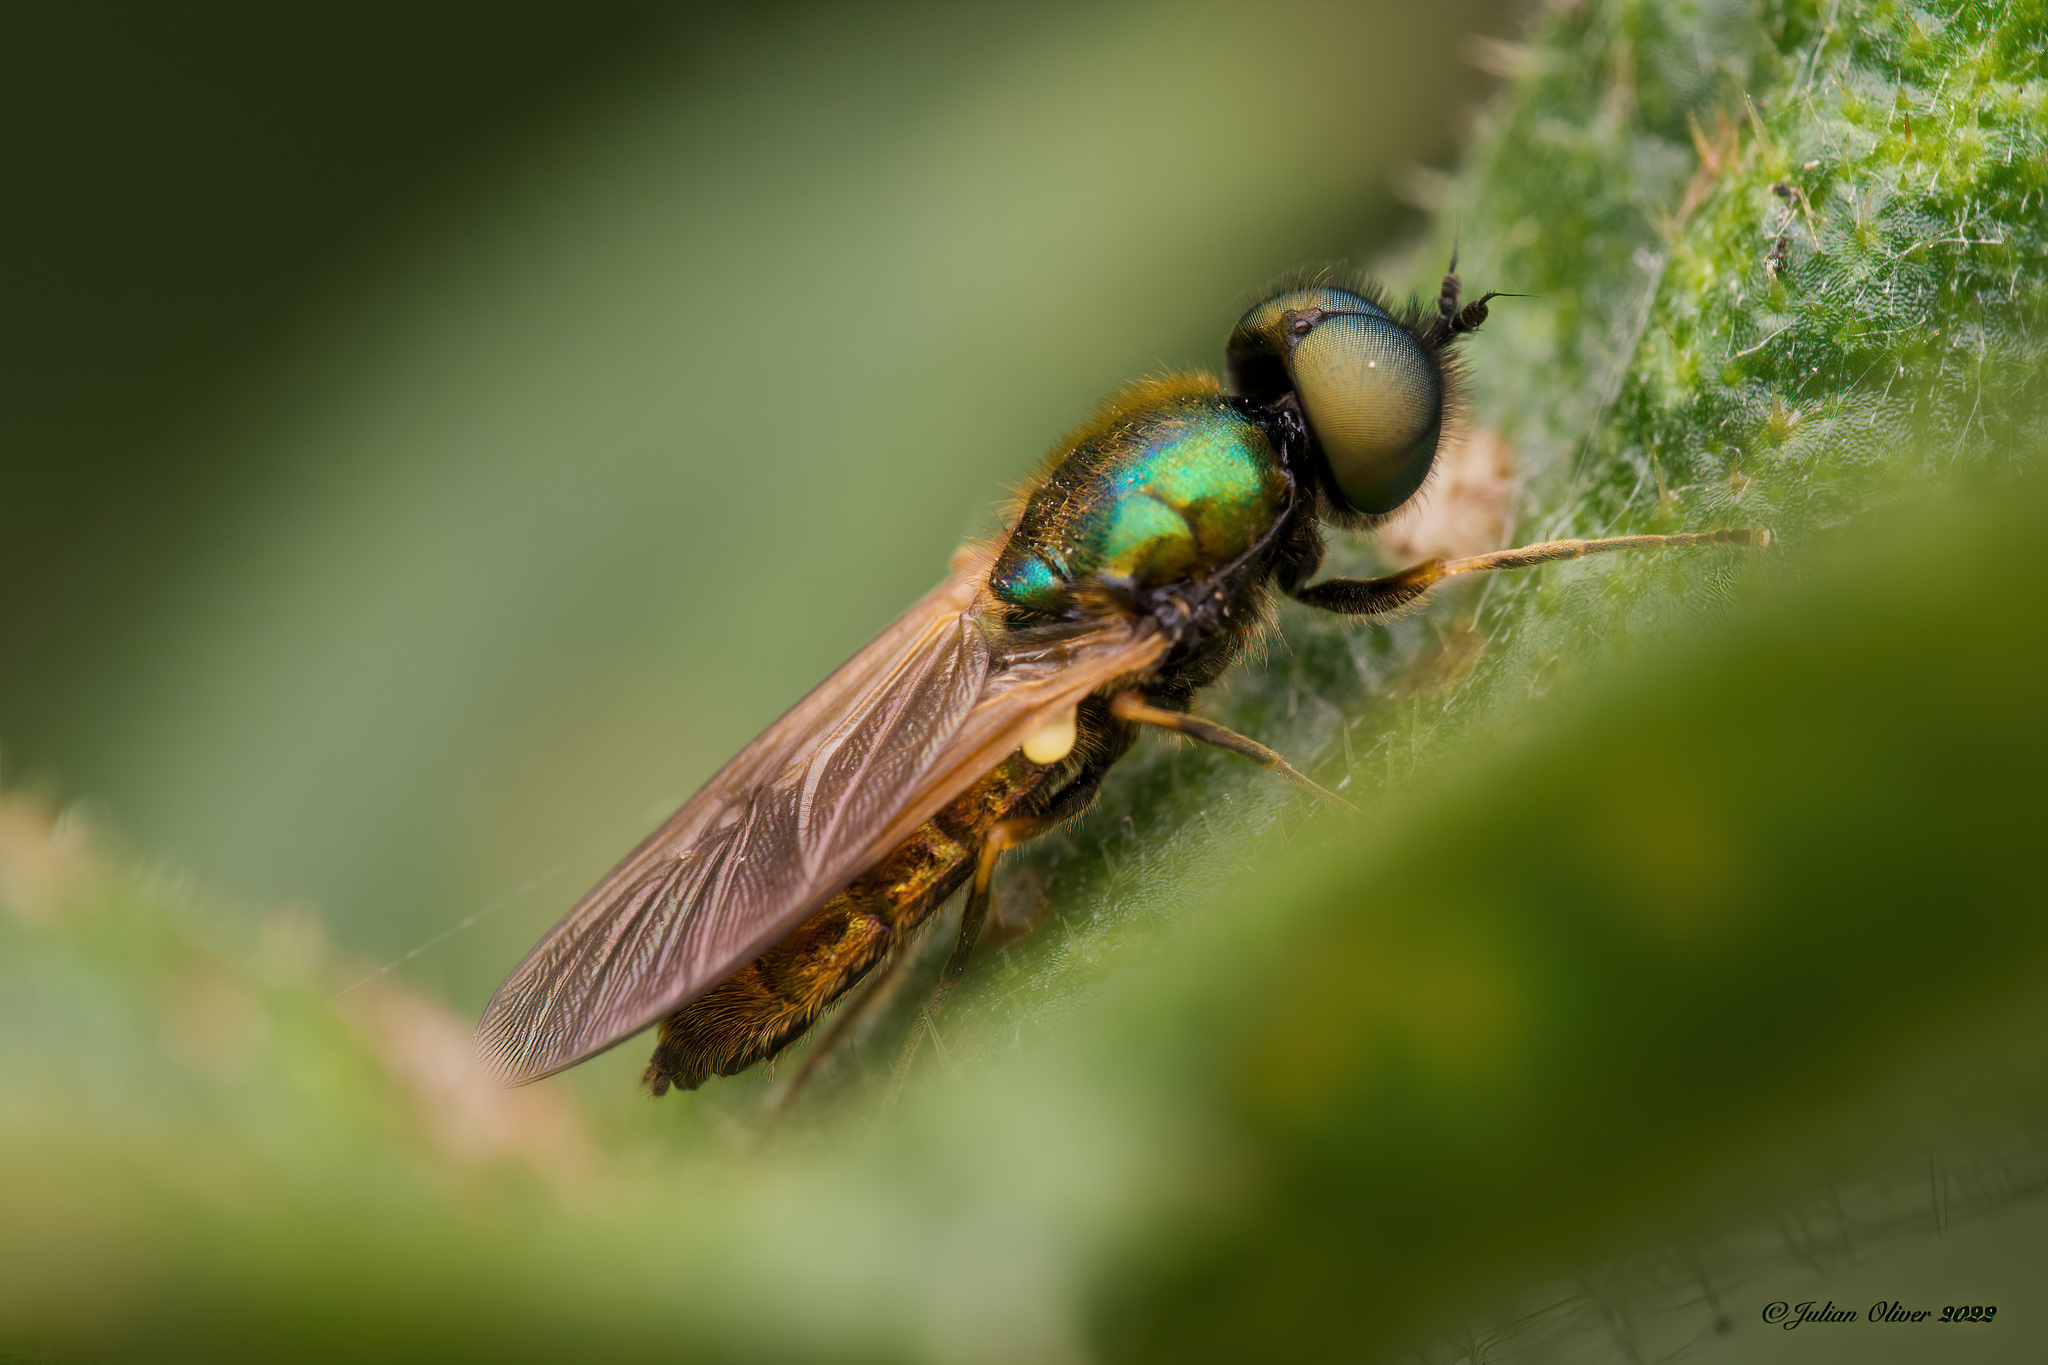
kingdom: Animalia
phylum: Arthropoda
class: Insecta
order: Diptera
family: Stratiomyidae
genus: Chloromyia
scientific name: Chloromyia formosa
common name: Soldier fly
